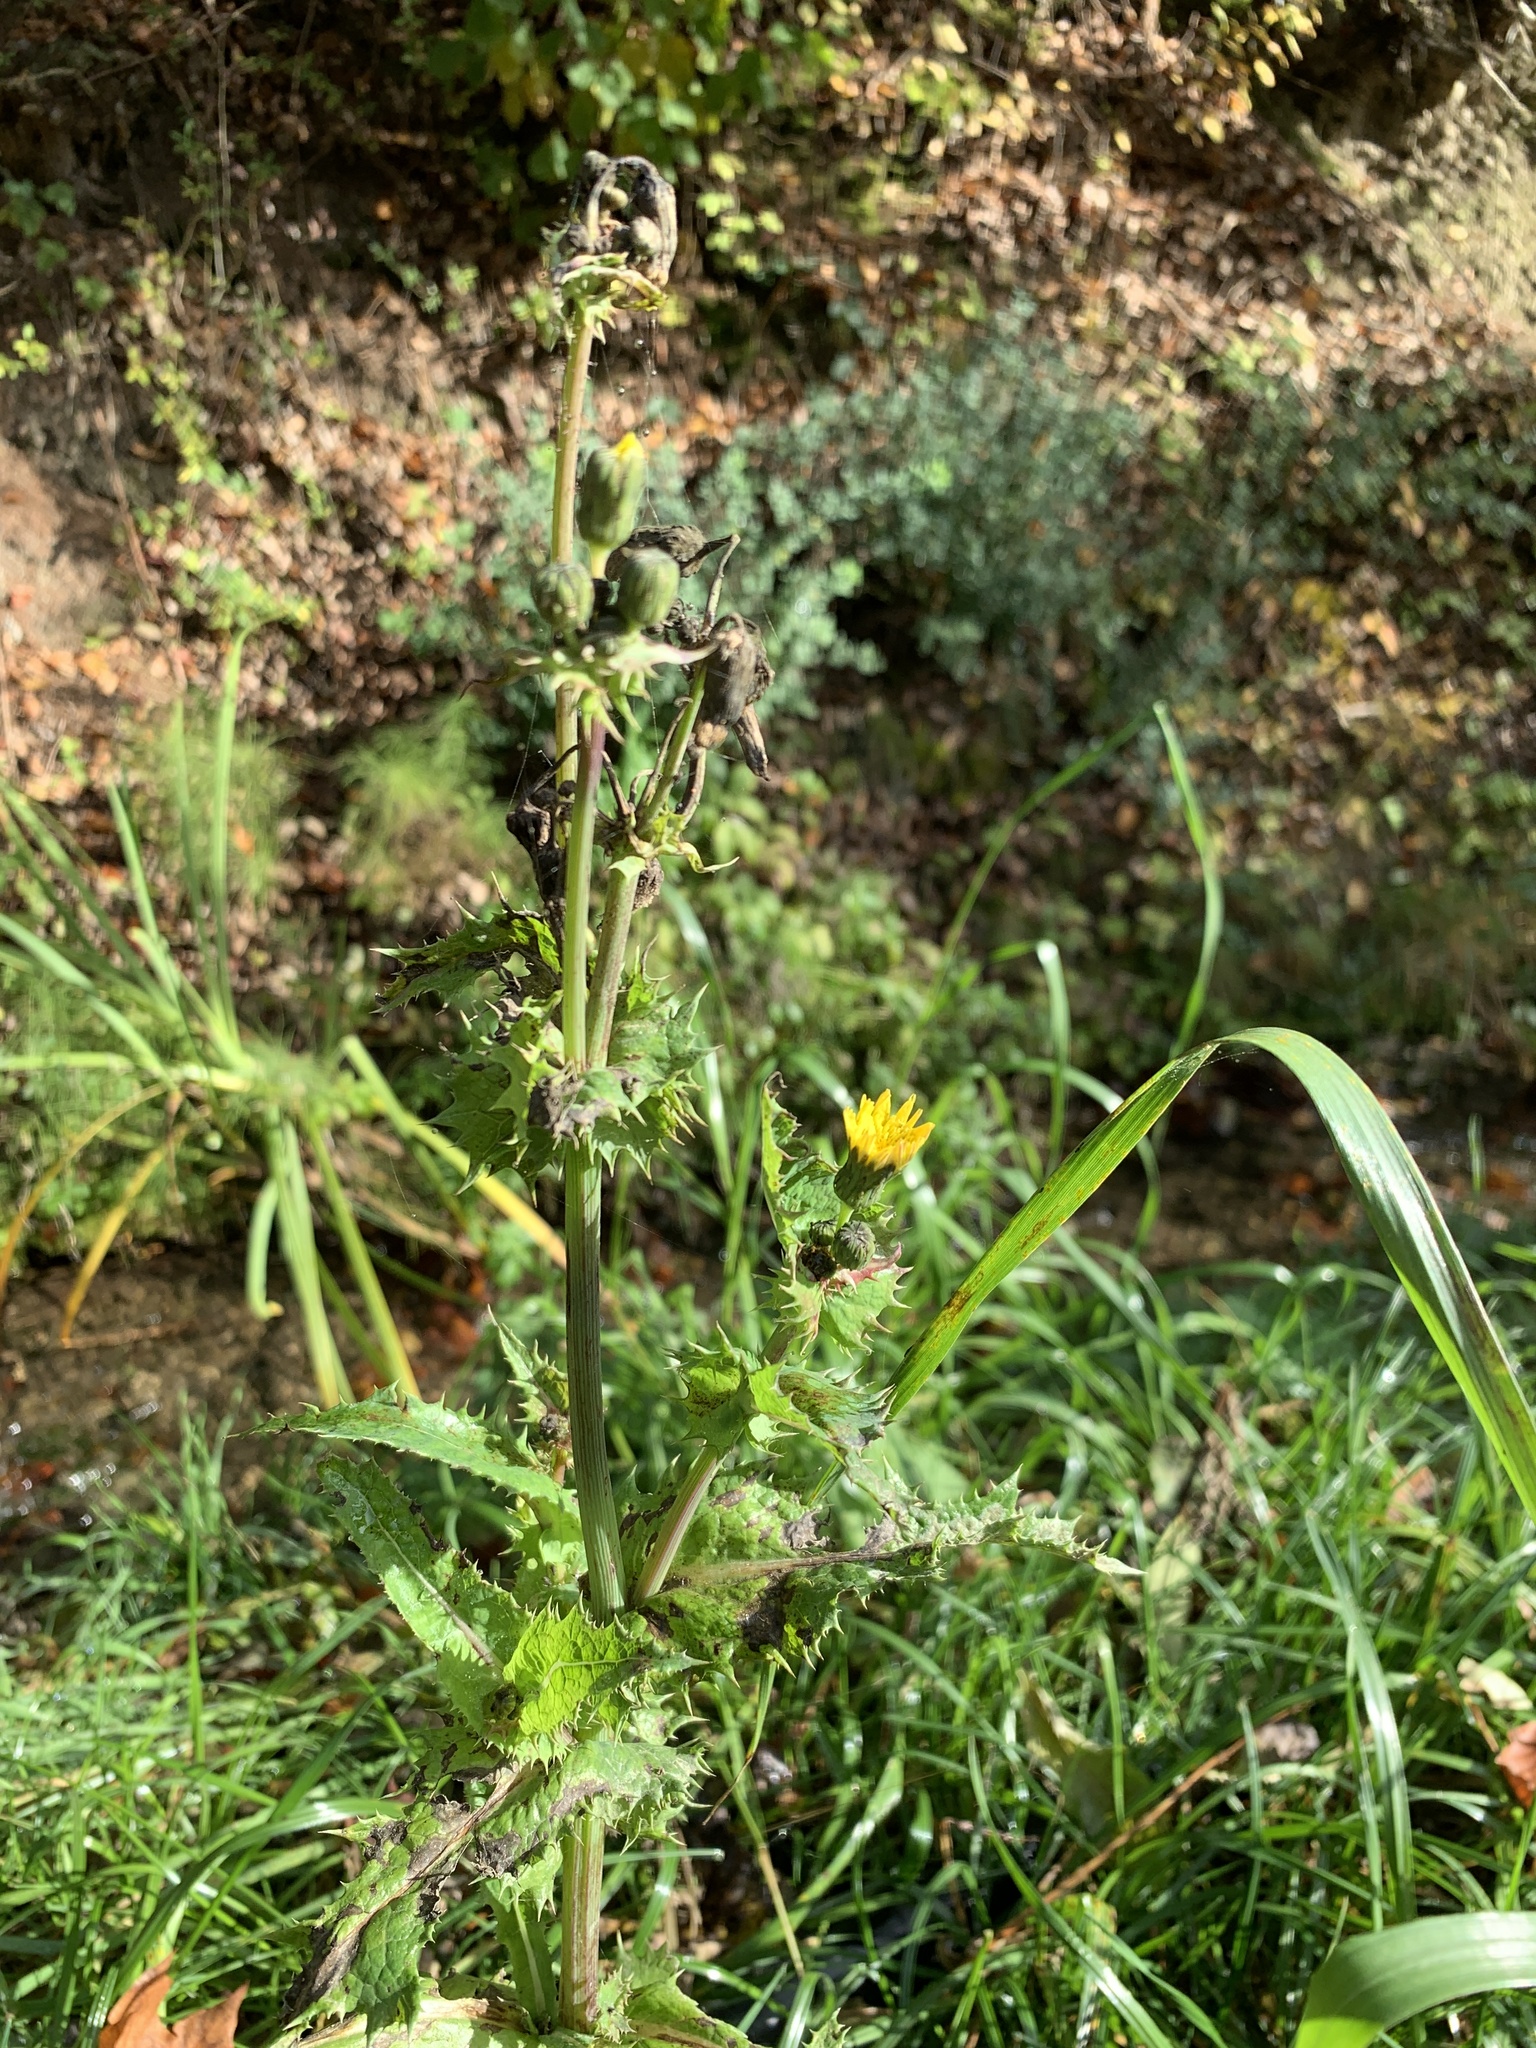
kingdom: Plantae
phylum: Tracheophyta
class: Magnoliopsida
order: Asterales
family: Asteraceae
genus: Sonchus
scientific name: Sonchus asper
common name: Prickly sow-thistle
